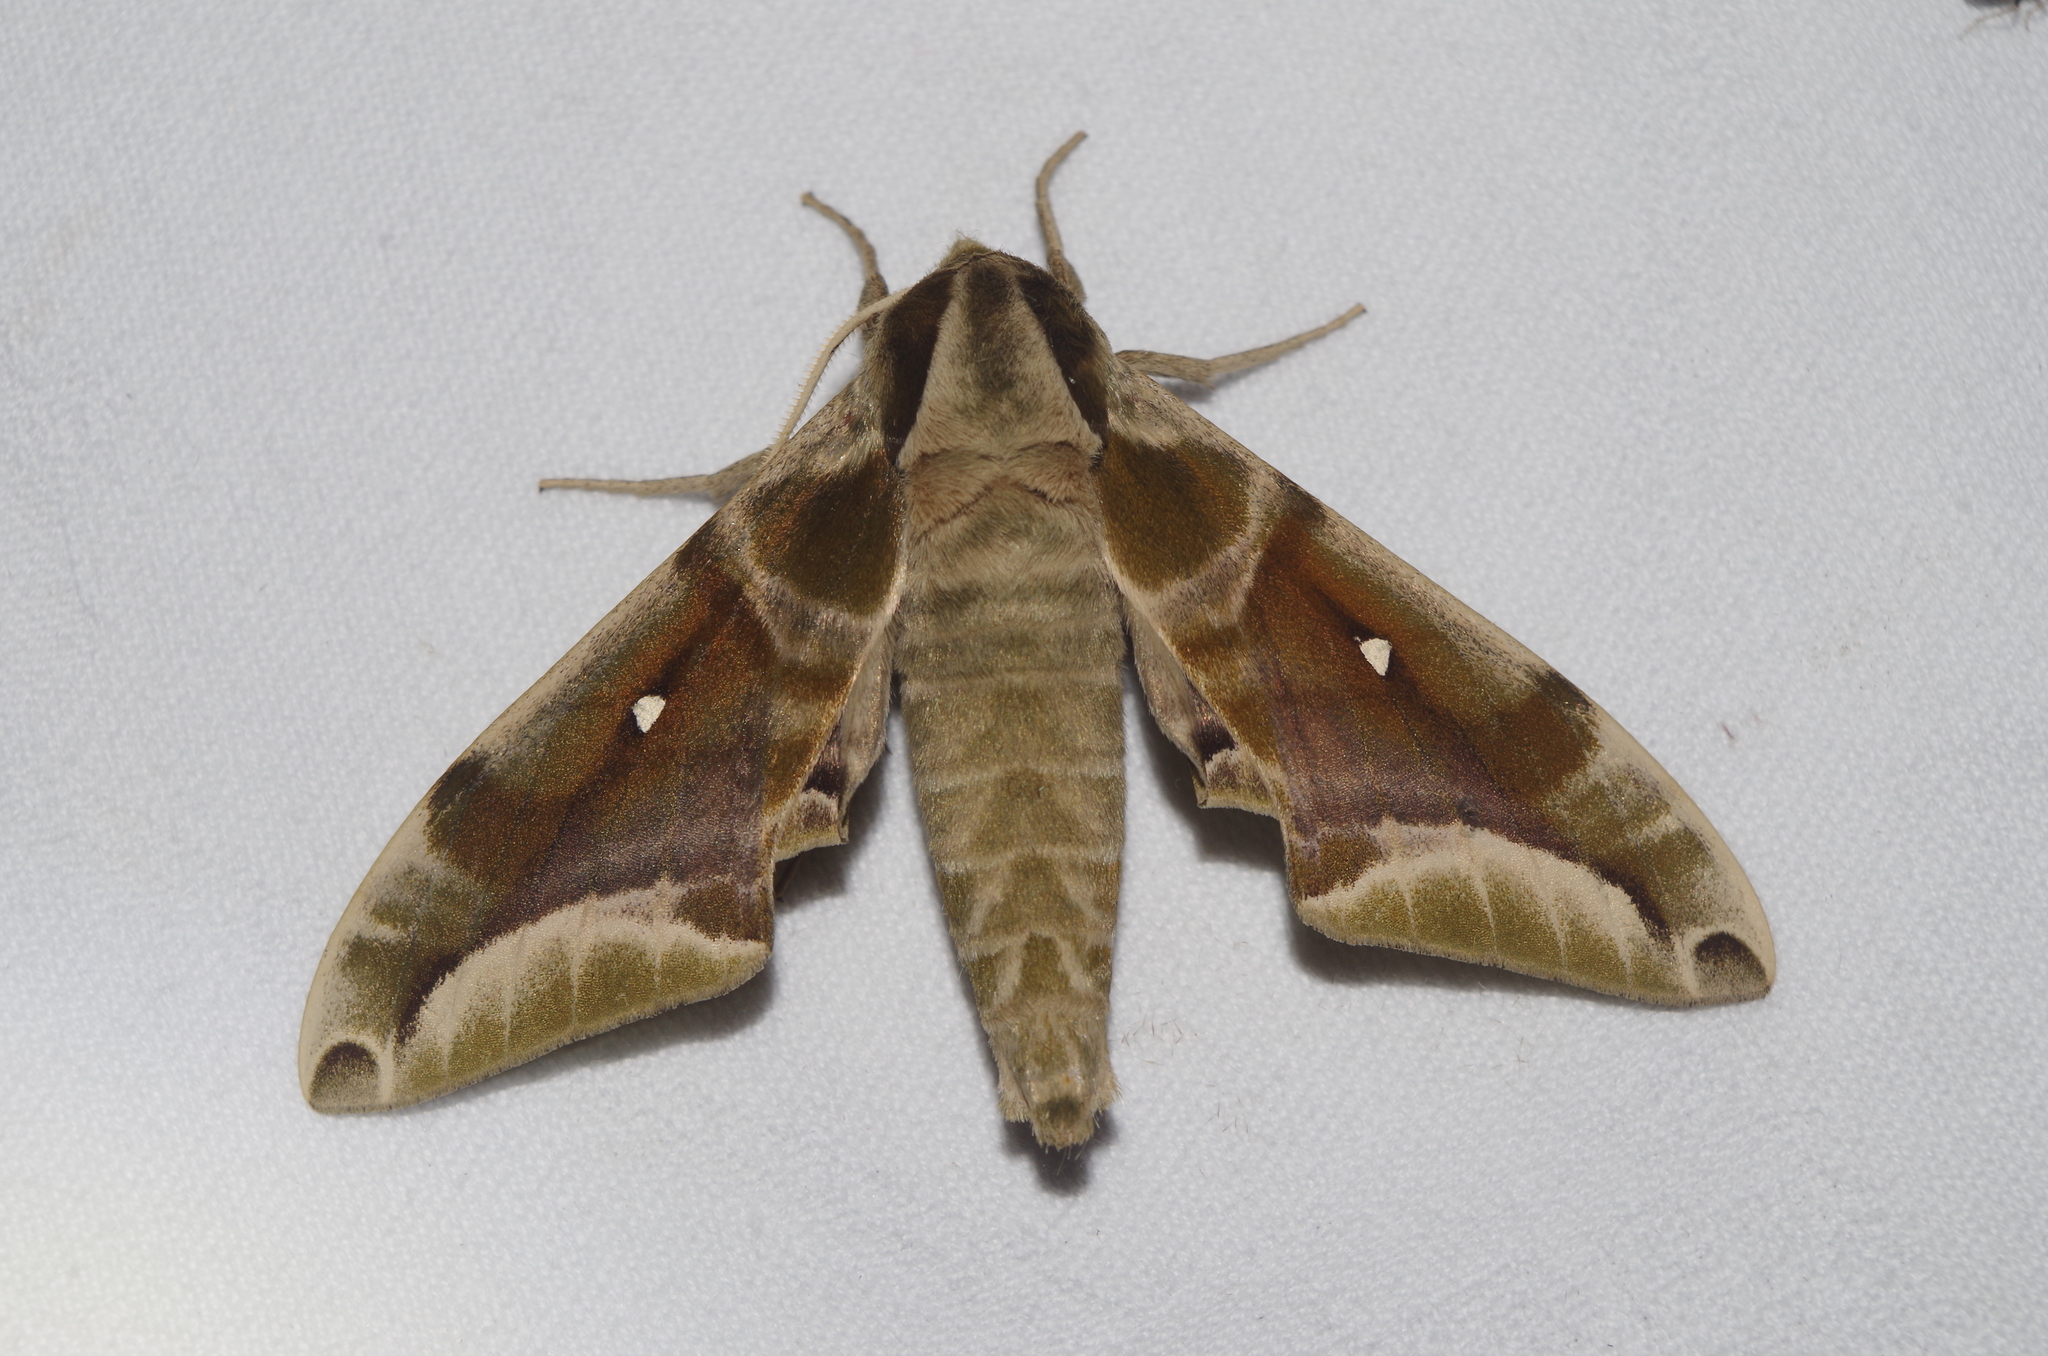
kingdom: Animalia
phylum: Arthropoda
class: Insecta
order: Lepidoptera
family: Sphingidae
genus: Parum
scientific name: Parum colligata
